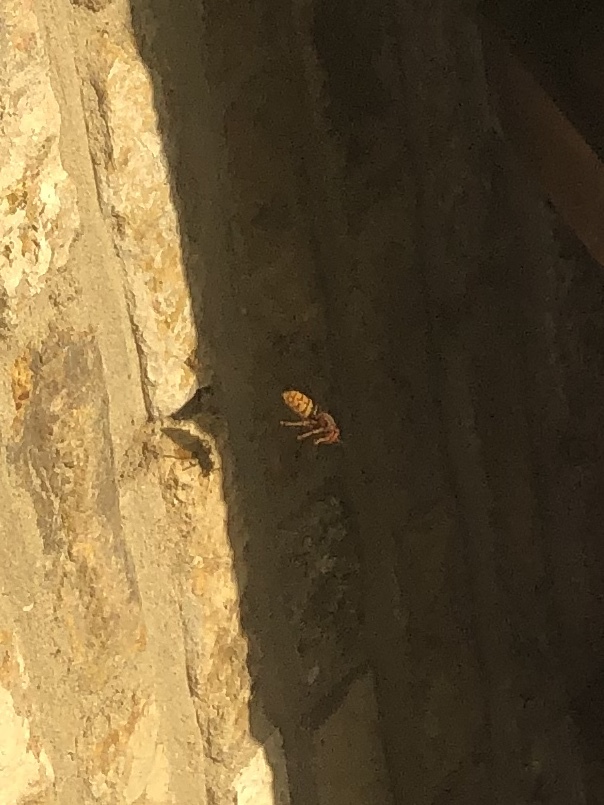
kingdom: Animalia
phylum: Arthropoda
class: Insecta
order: Hymenoptera
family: Vespidae
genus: Vespa
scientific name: Vespa crabro
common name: Hornet
